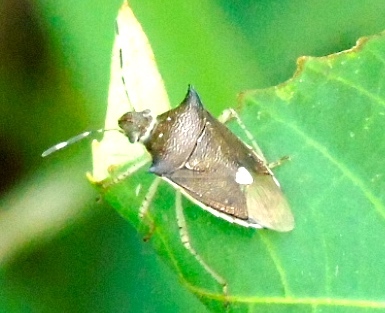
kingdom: Animalia
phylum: Arthropoda
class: Insecta
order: Hemiptera
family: Pentatomidae
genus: Mormidea
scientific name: Mormidea lunara
